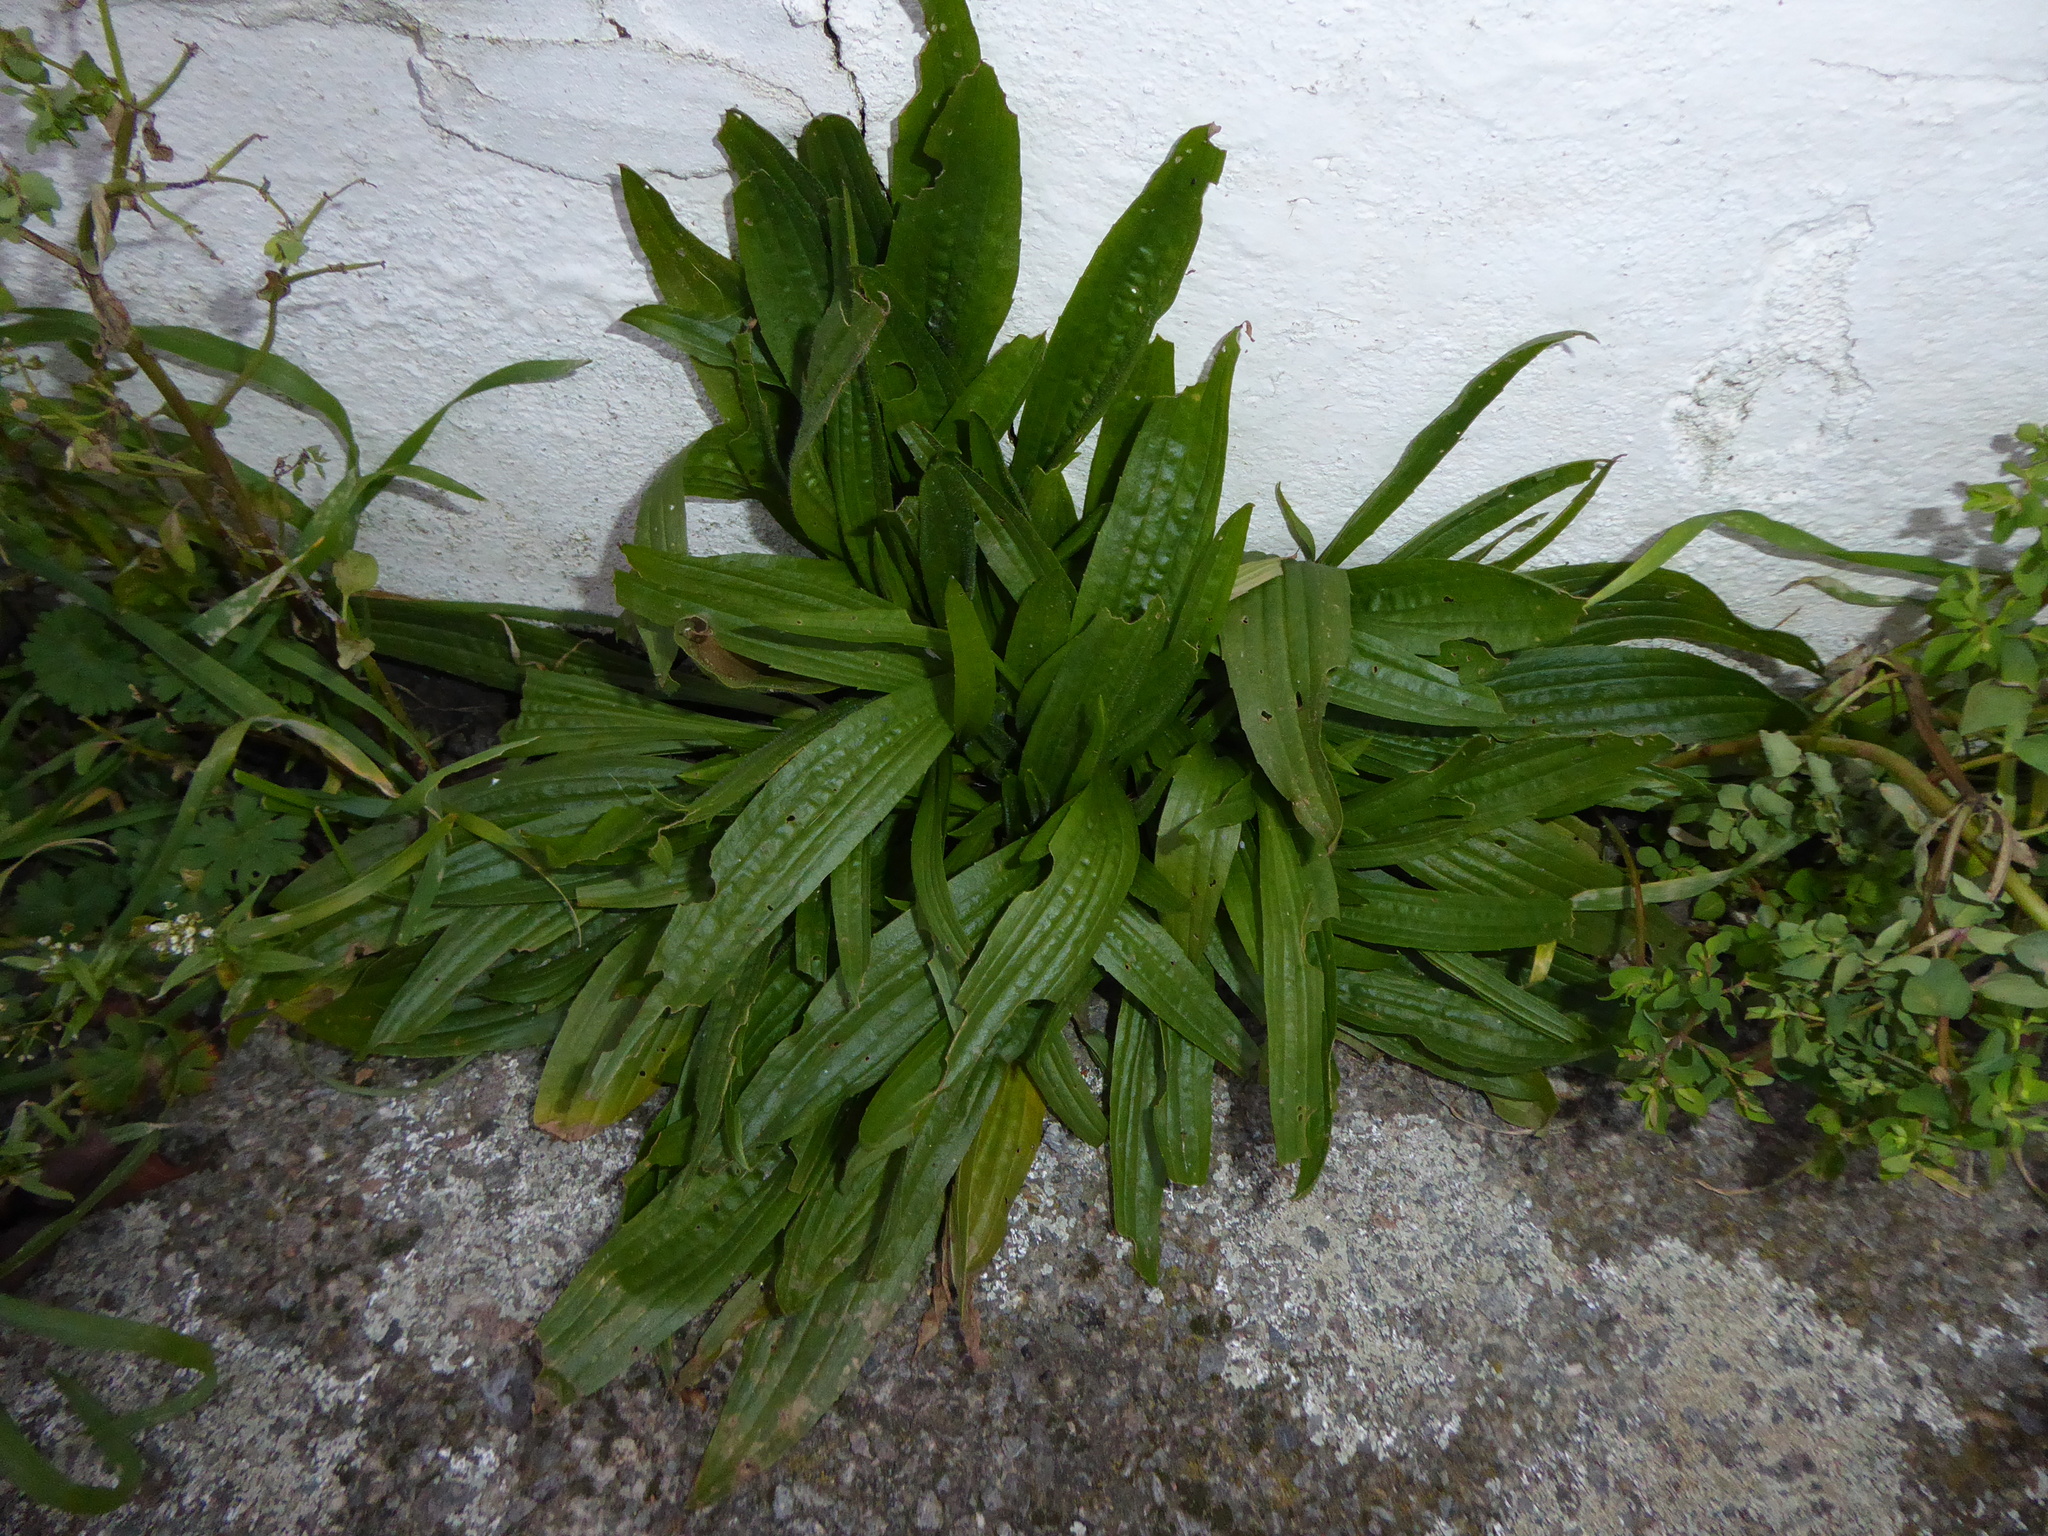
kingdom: Plantae
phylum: Tracheophyta
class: Magnoliopsida
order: Lamiales
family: Plantaginaceae
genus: Plantago
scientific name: Plantago lanceolata
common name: Ribwort plantain
